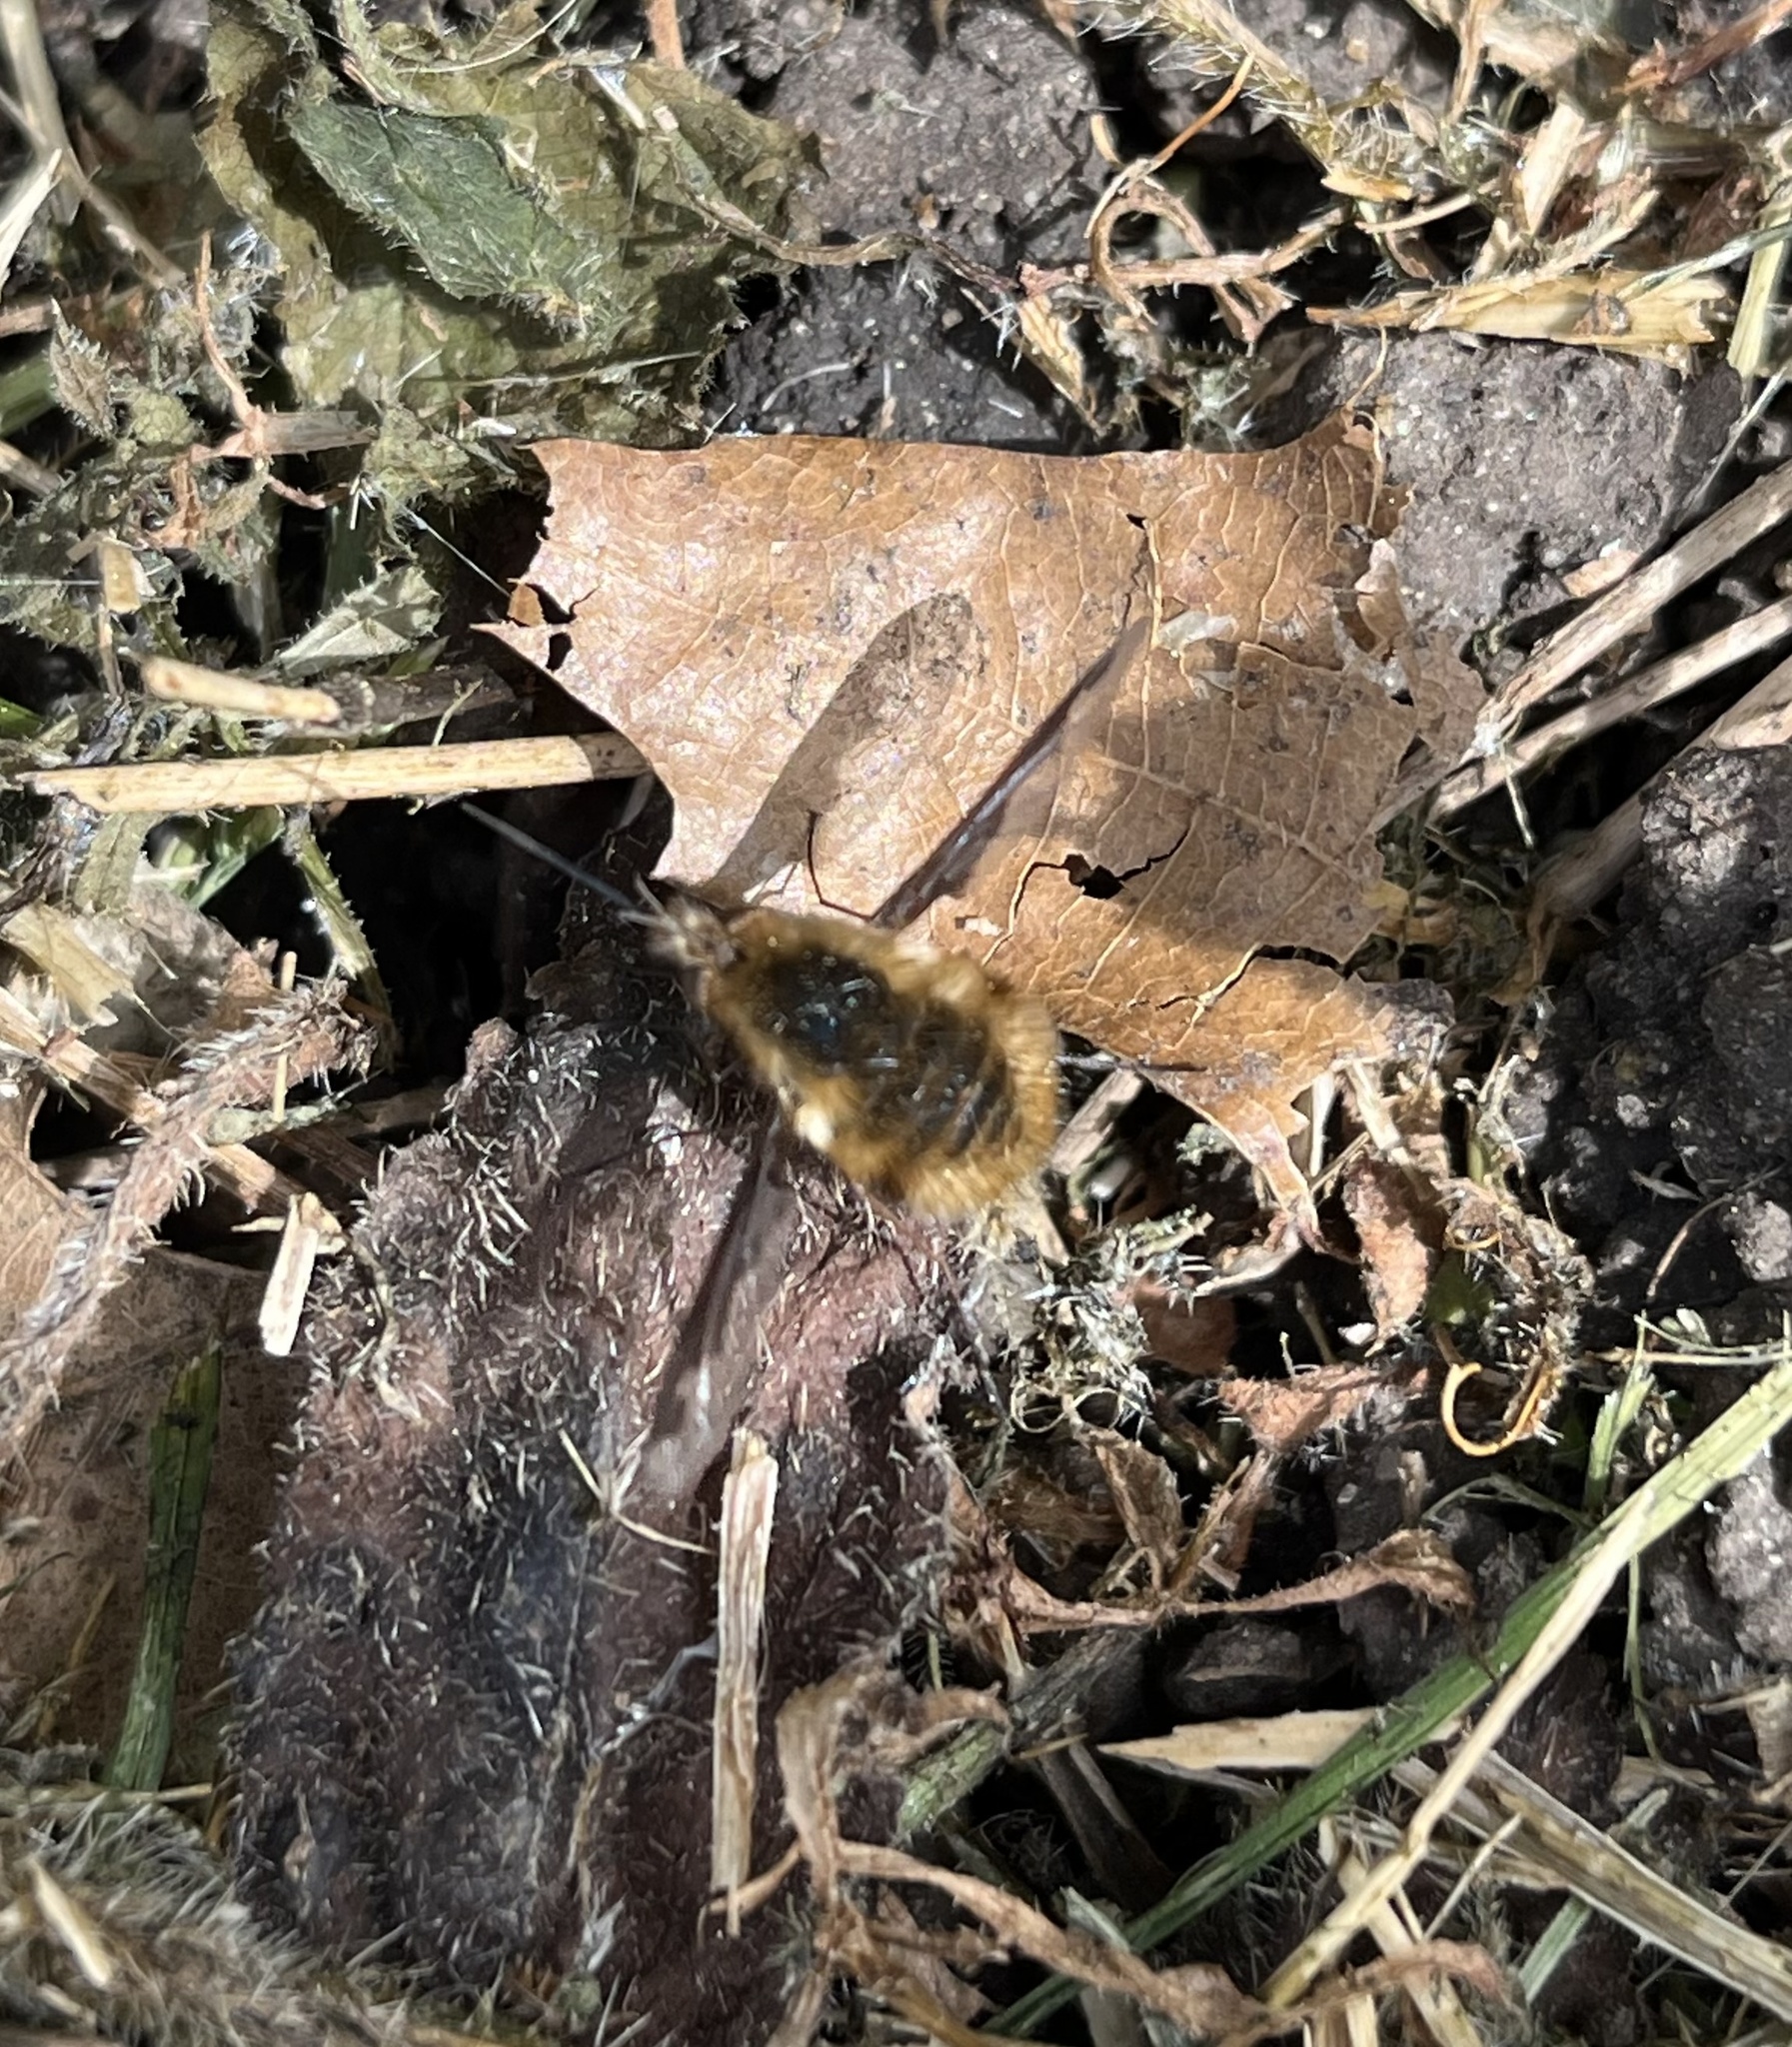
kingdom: Animalia
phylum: Arthropoda
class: Insecta
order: Diptera
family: Bombyliidae
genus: Bombylius
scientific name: Bombylius major
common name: Bee fly
